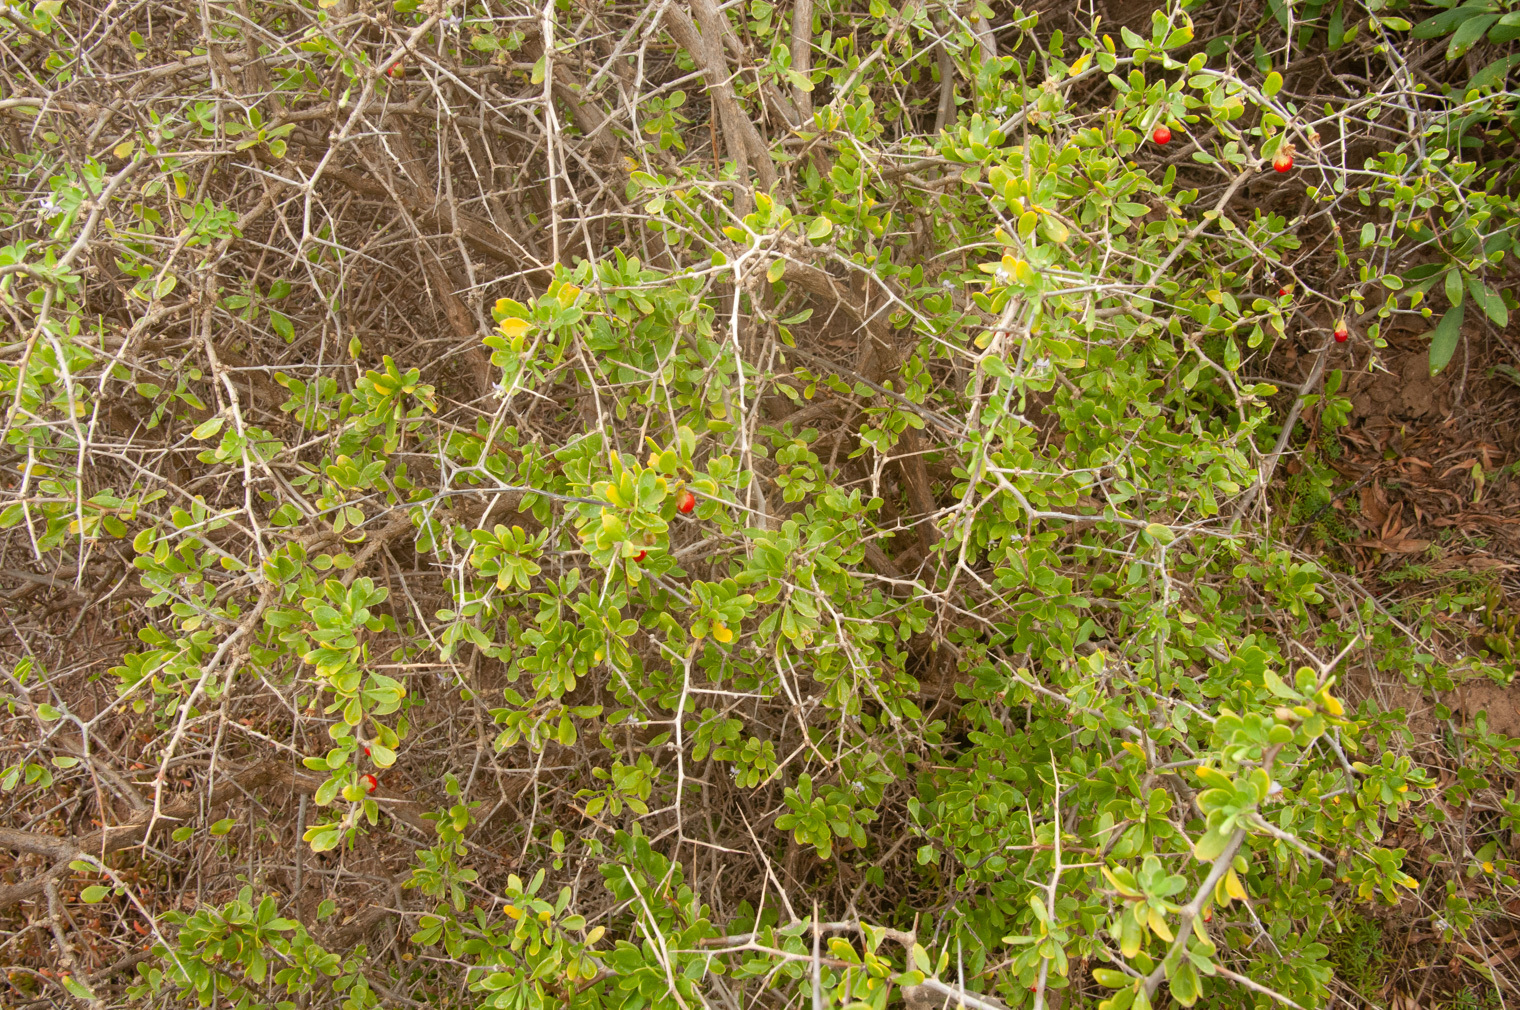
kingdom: Plantae
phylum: Tracheophyta
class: Magnoliopsida
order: Solanales
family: Solanaceae
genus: Lycium
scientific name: Lycium ferocissimum
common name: African boxthorn
